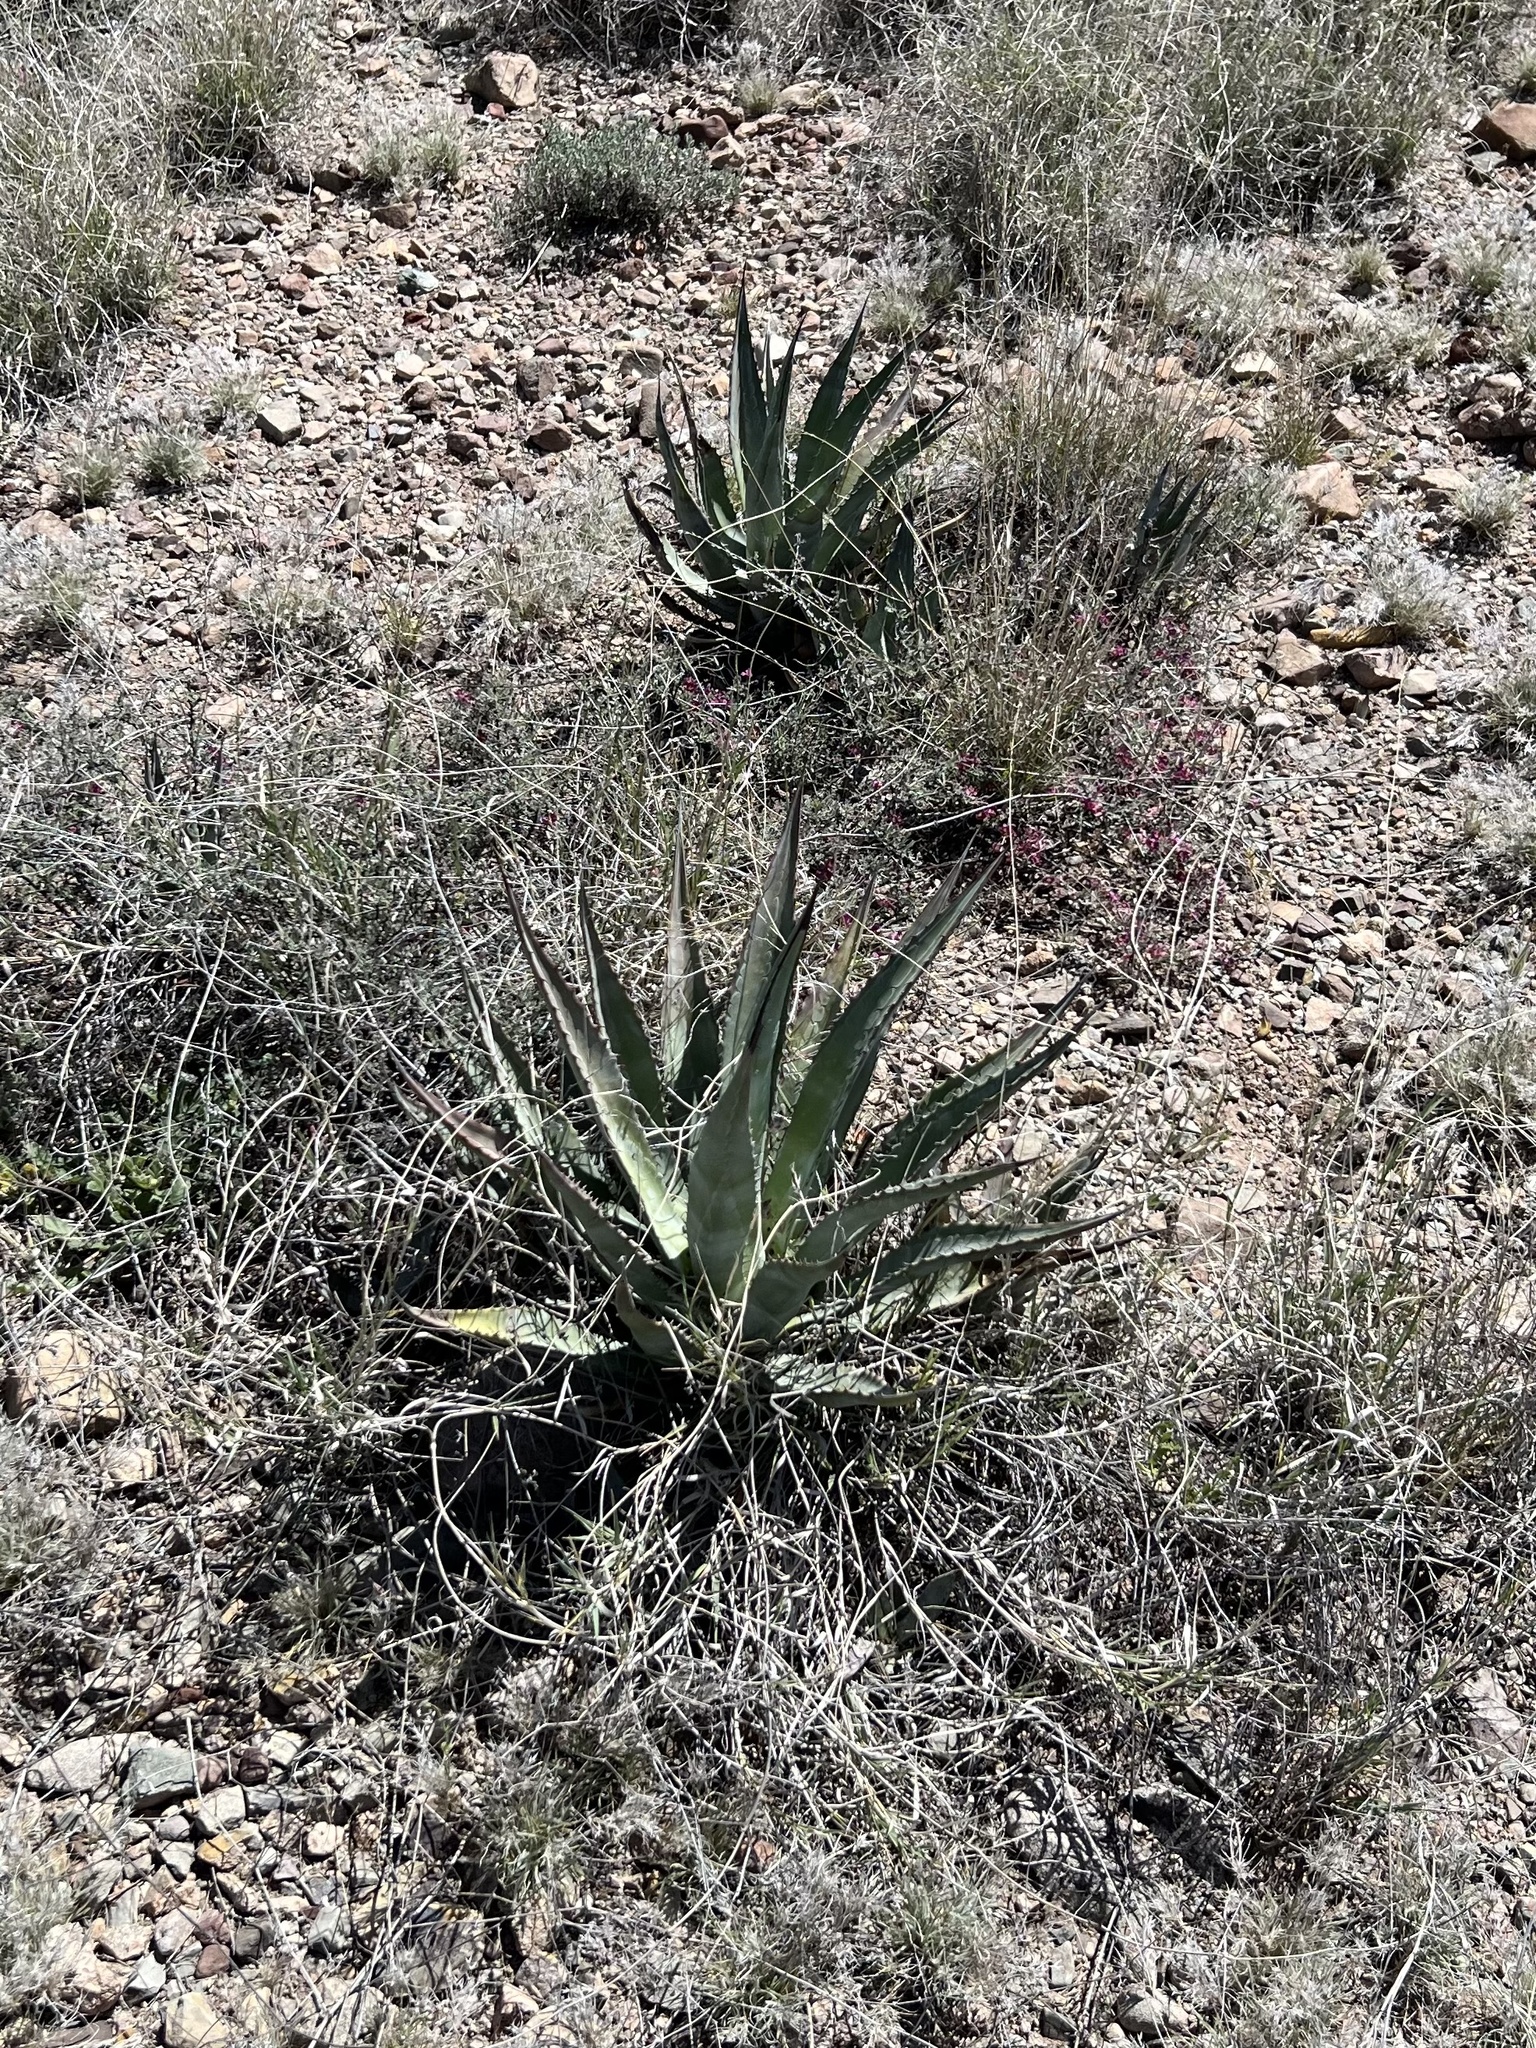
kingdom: Plantae
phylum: Tracheophyta
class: Liliopsida
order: Asparagales
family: Asparagaceae
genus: Agave
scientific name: Agave palmeri
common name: Palmer agave
